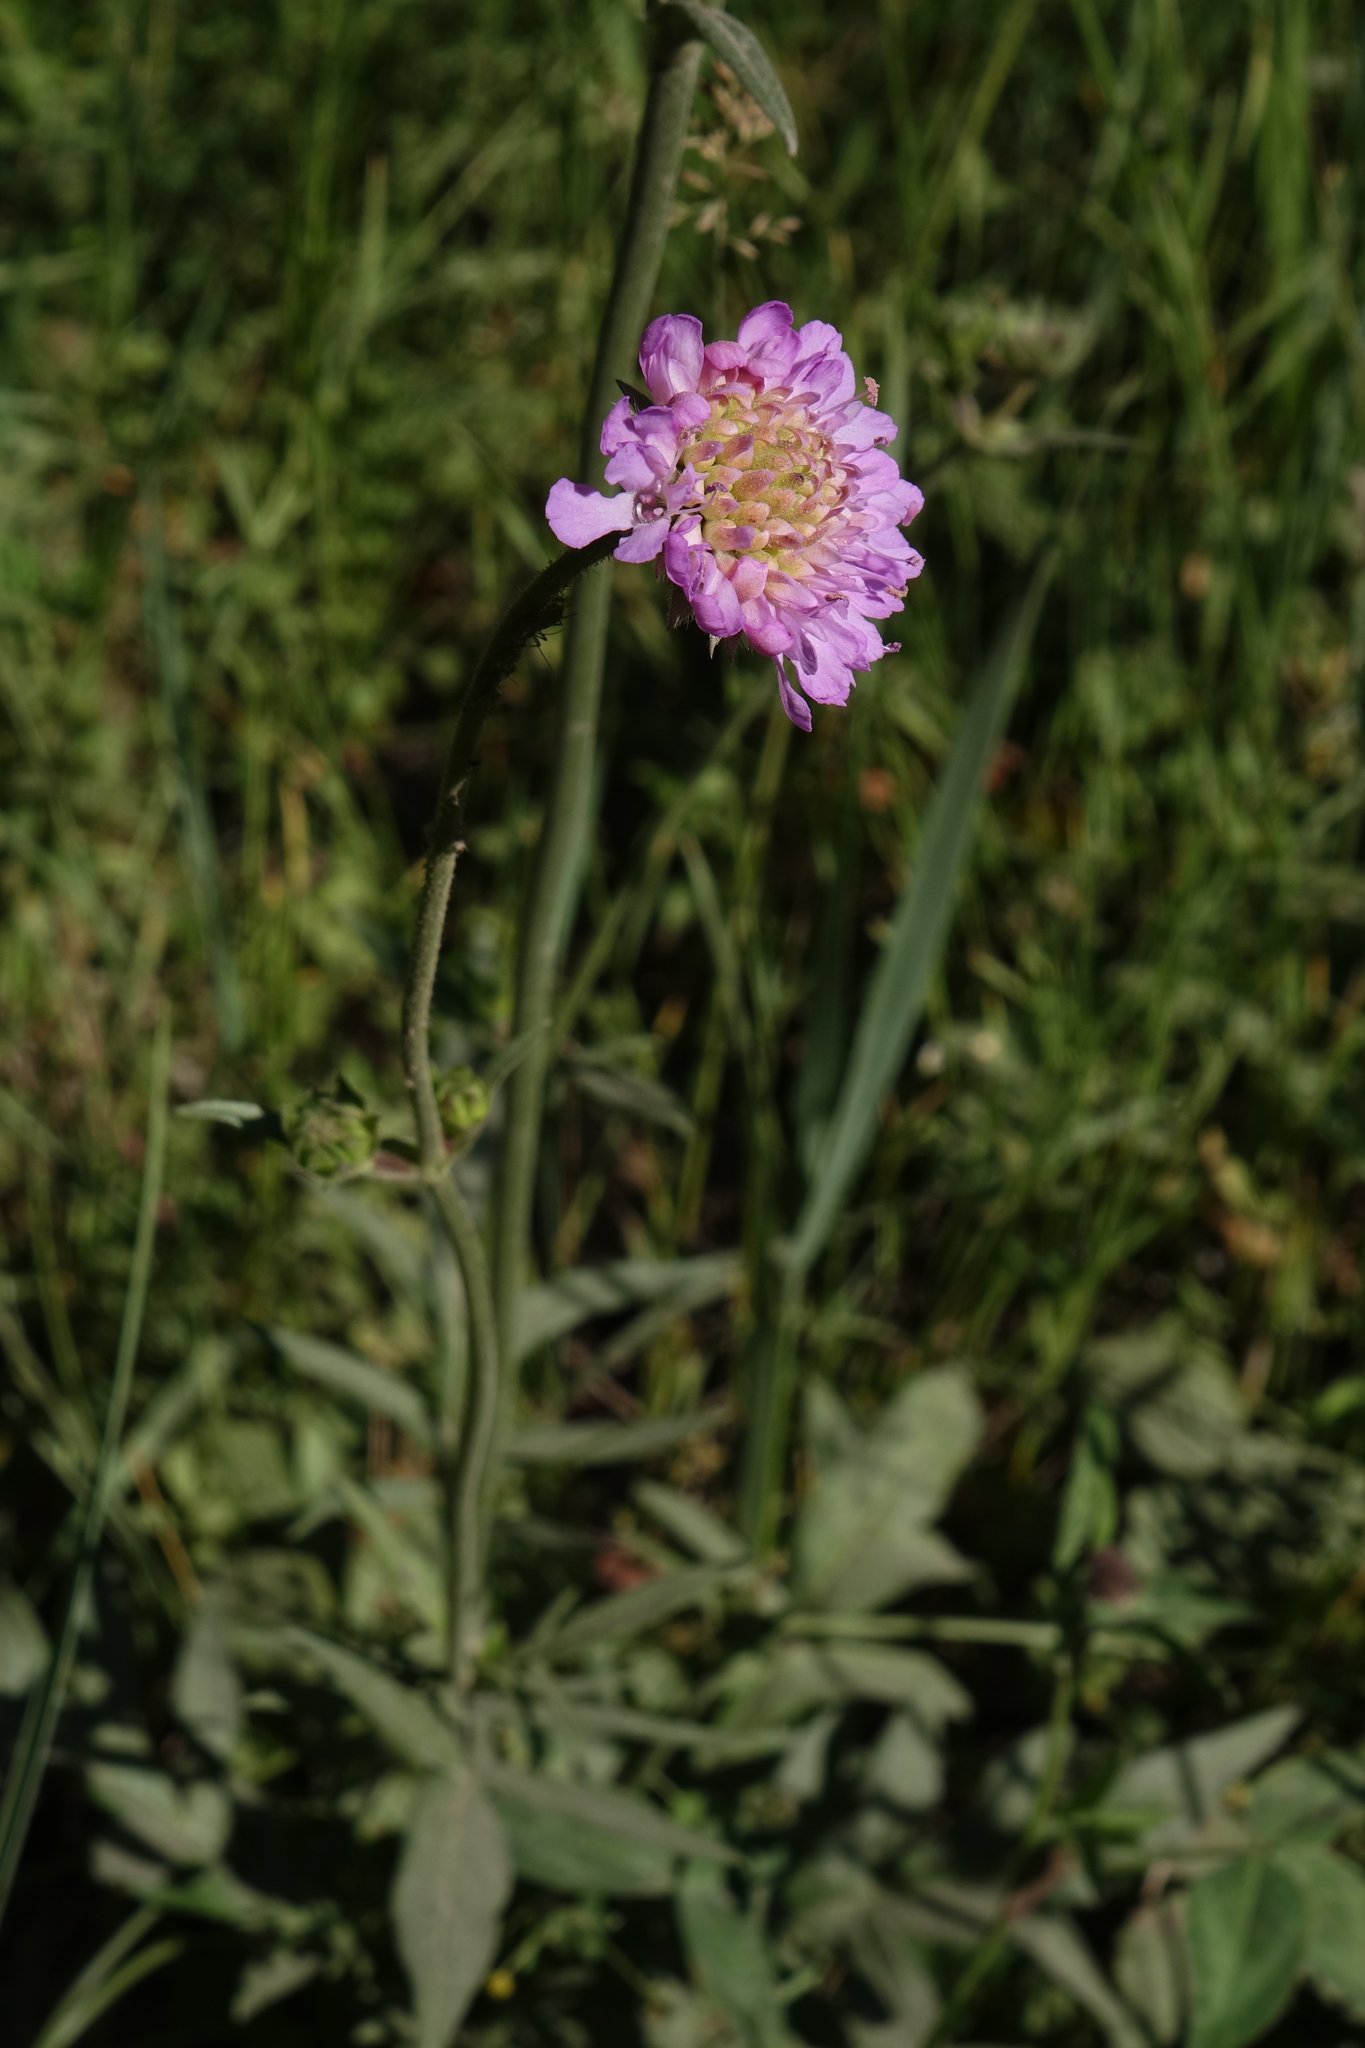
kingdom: Plantae
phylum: Tracheophyta
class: Magnoliopsida
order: Dipsacales
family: Caprifoliaceae
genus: Knautia
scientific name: Knautia arvensis
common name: Field scabiosa
